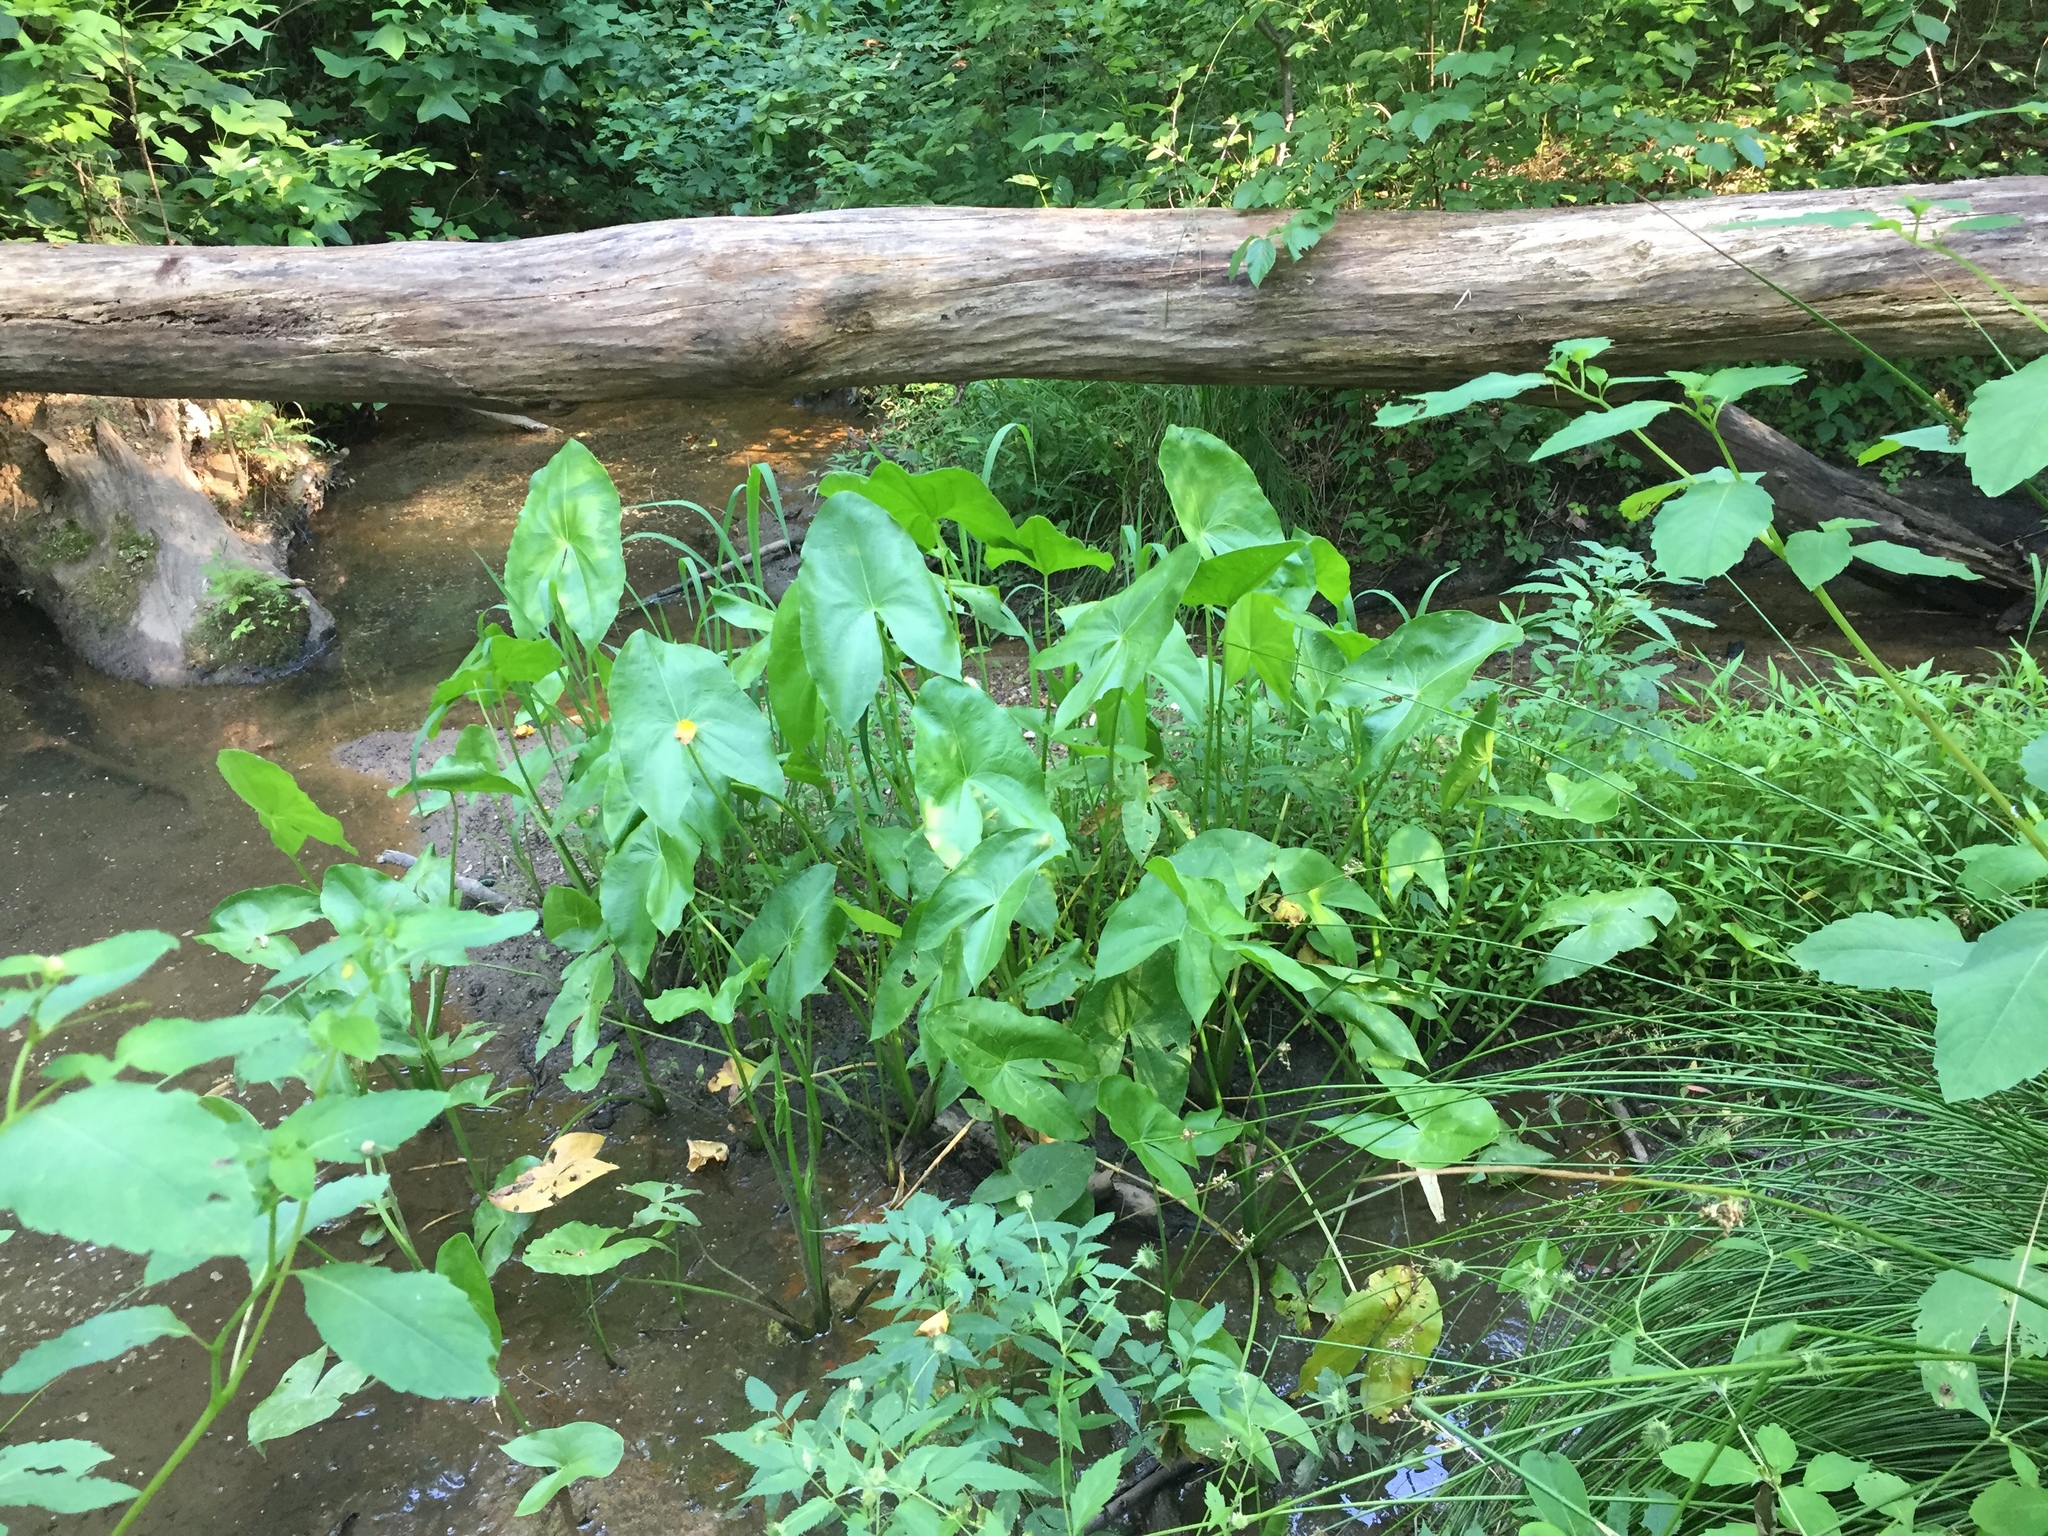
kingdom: Plantae
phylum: Tracheophyta
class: Liliopsida
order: Alismatales
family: Alismataceae
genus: Sagittaria
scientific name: Sagittaria latifolia
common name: Duck-potato
